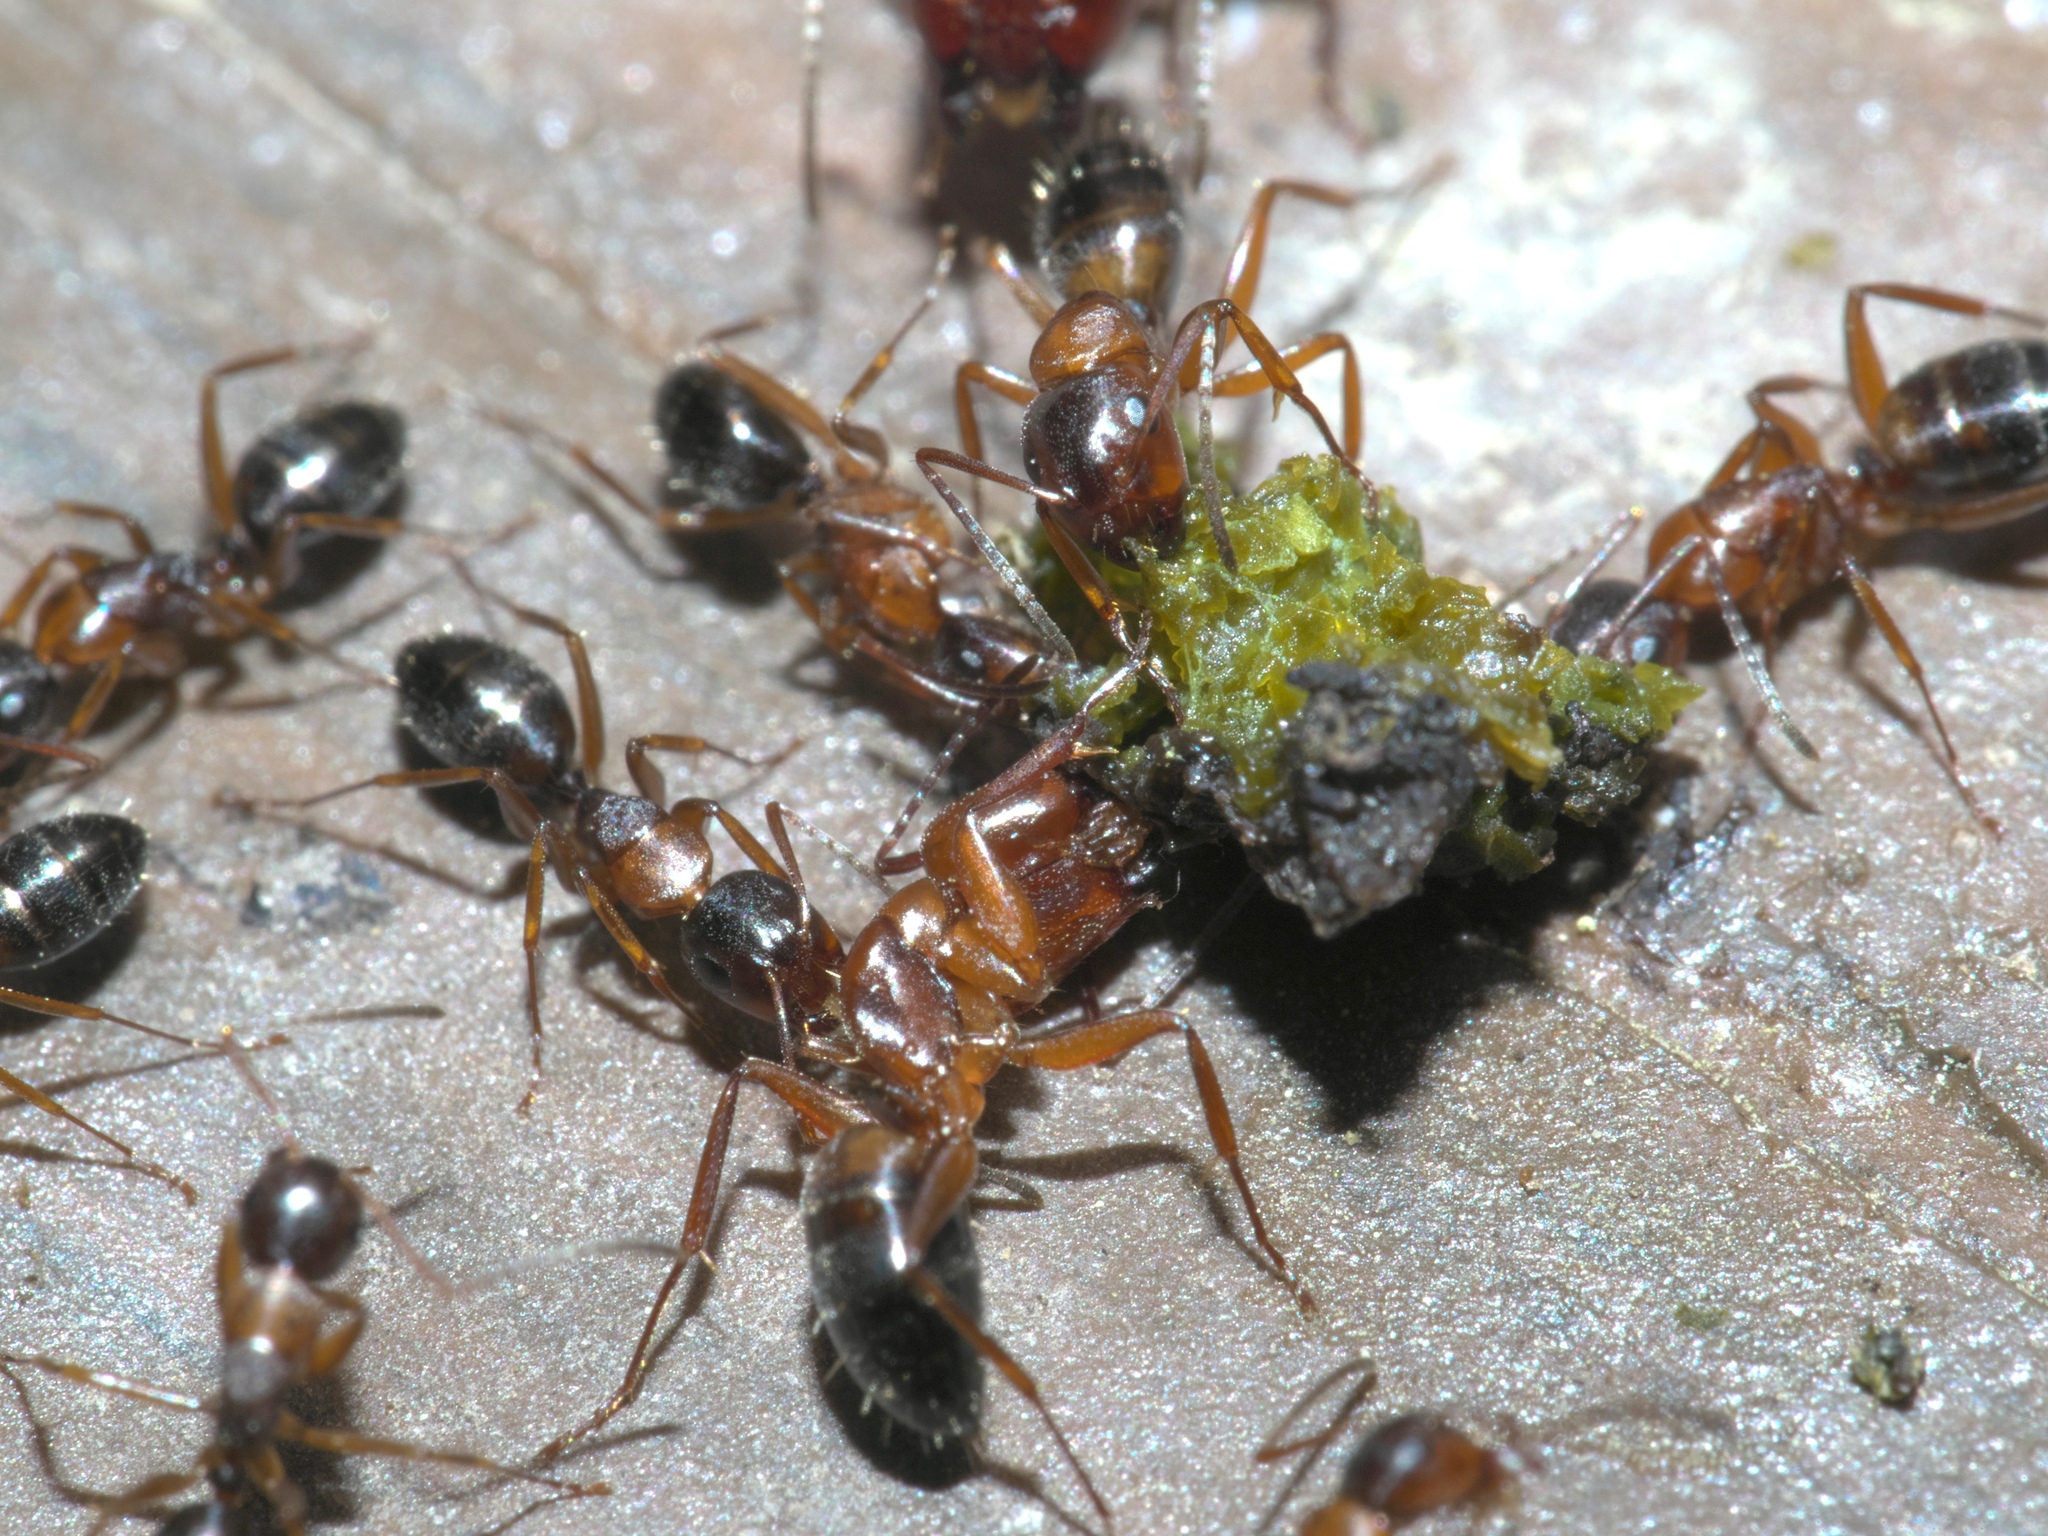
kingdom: Animalia
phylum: Arthropoda
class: Insecta
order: Hymenoptera
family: Formicidae
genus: Camponotus
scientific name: Camponotus snellingi
